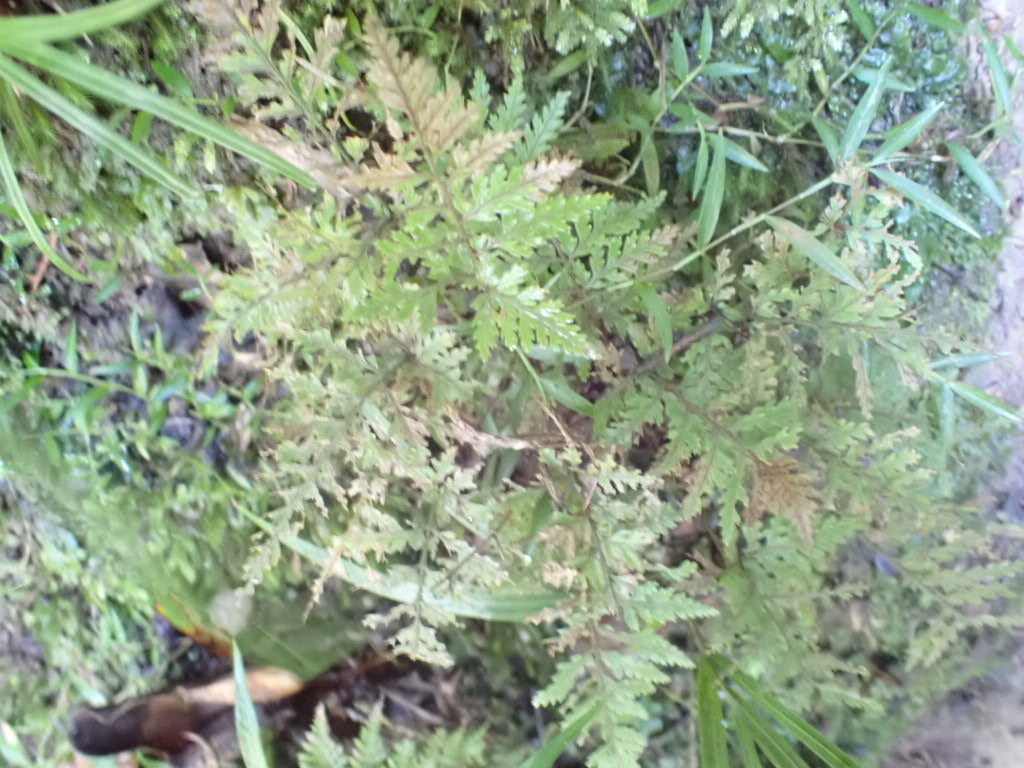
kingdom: Plantae
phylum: Tracheophyta
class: Polypodiopsida
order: Polypodiales
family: Dryopteridaceae
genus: Parapolystichum
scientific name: Parapolystichum glabellum
